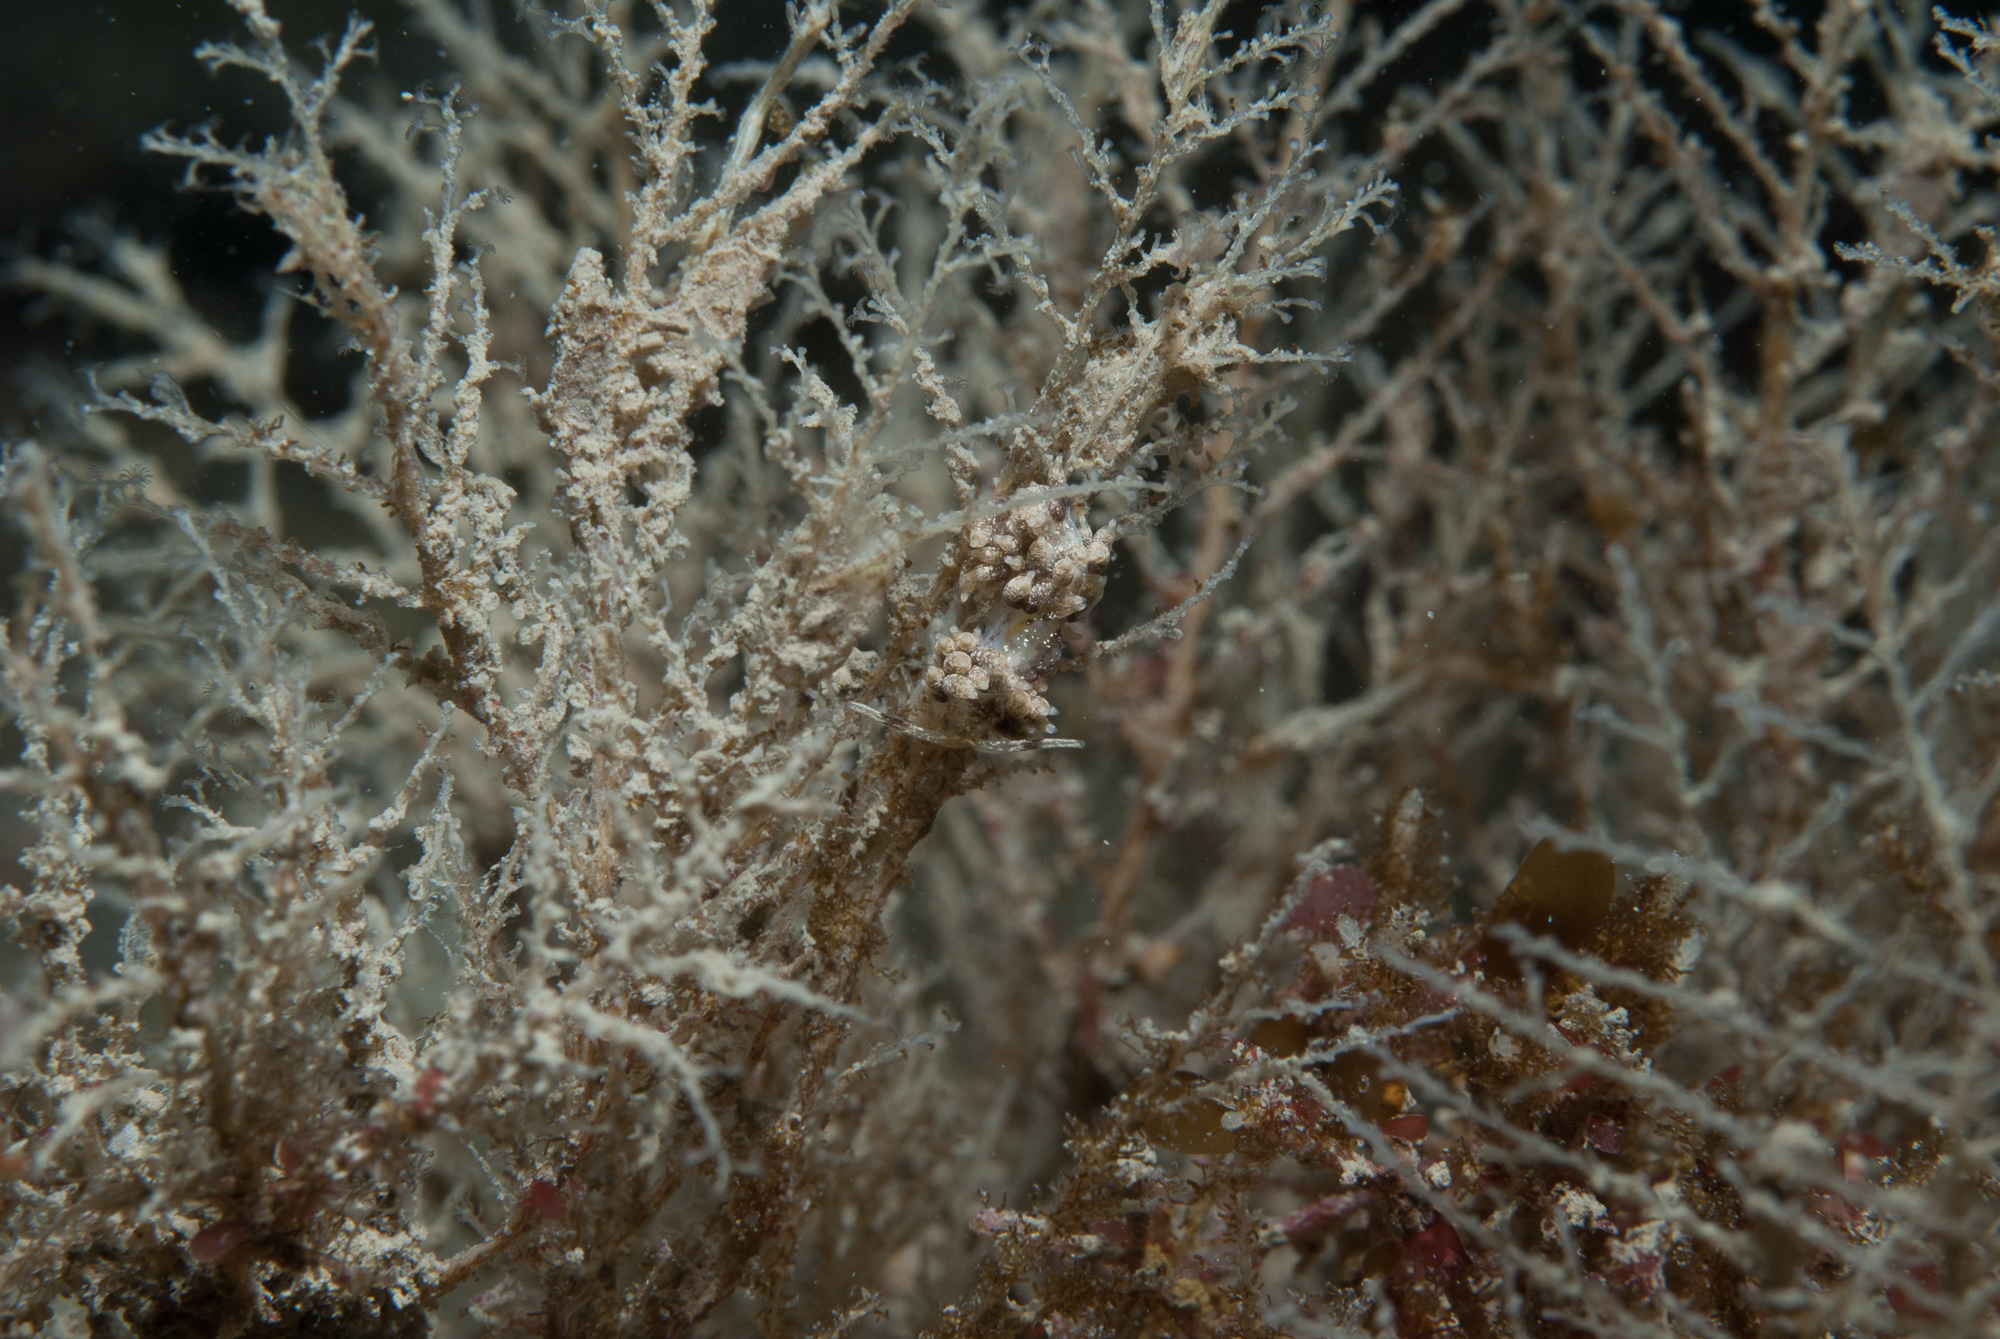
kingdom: Animalia
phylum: Mollusca
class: Gastropoda
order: Nudibranchia
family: Trinchesiidae
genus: Rubramoena
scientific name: Rubramoena amoena
